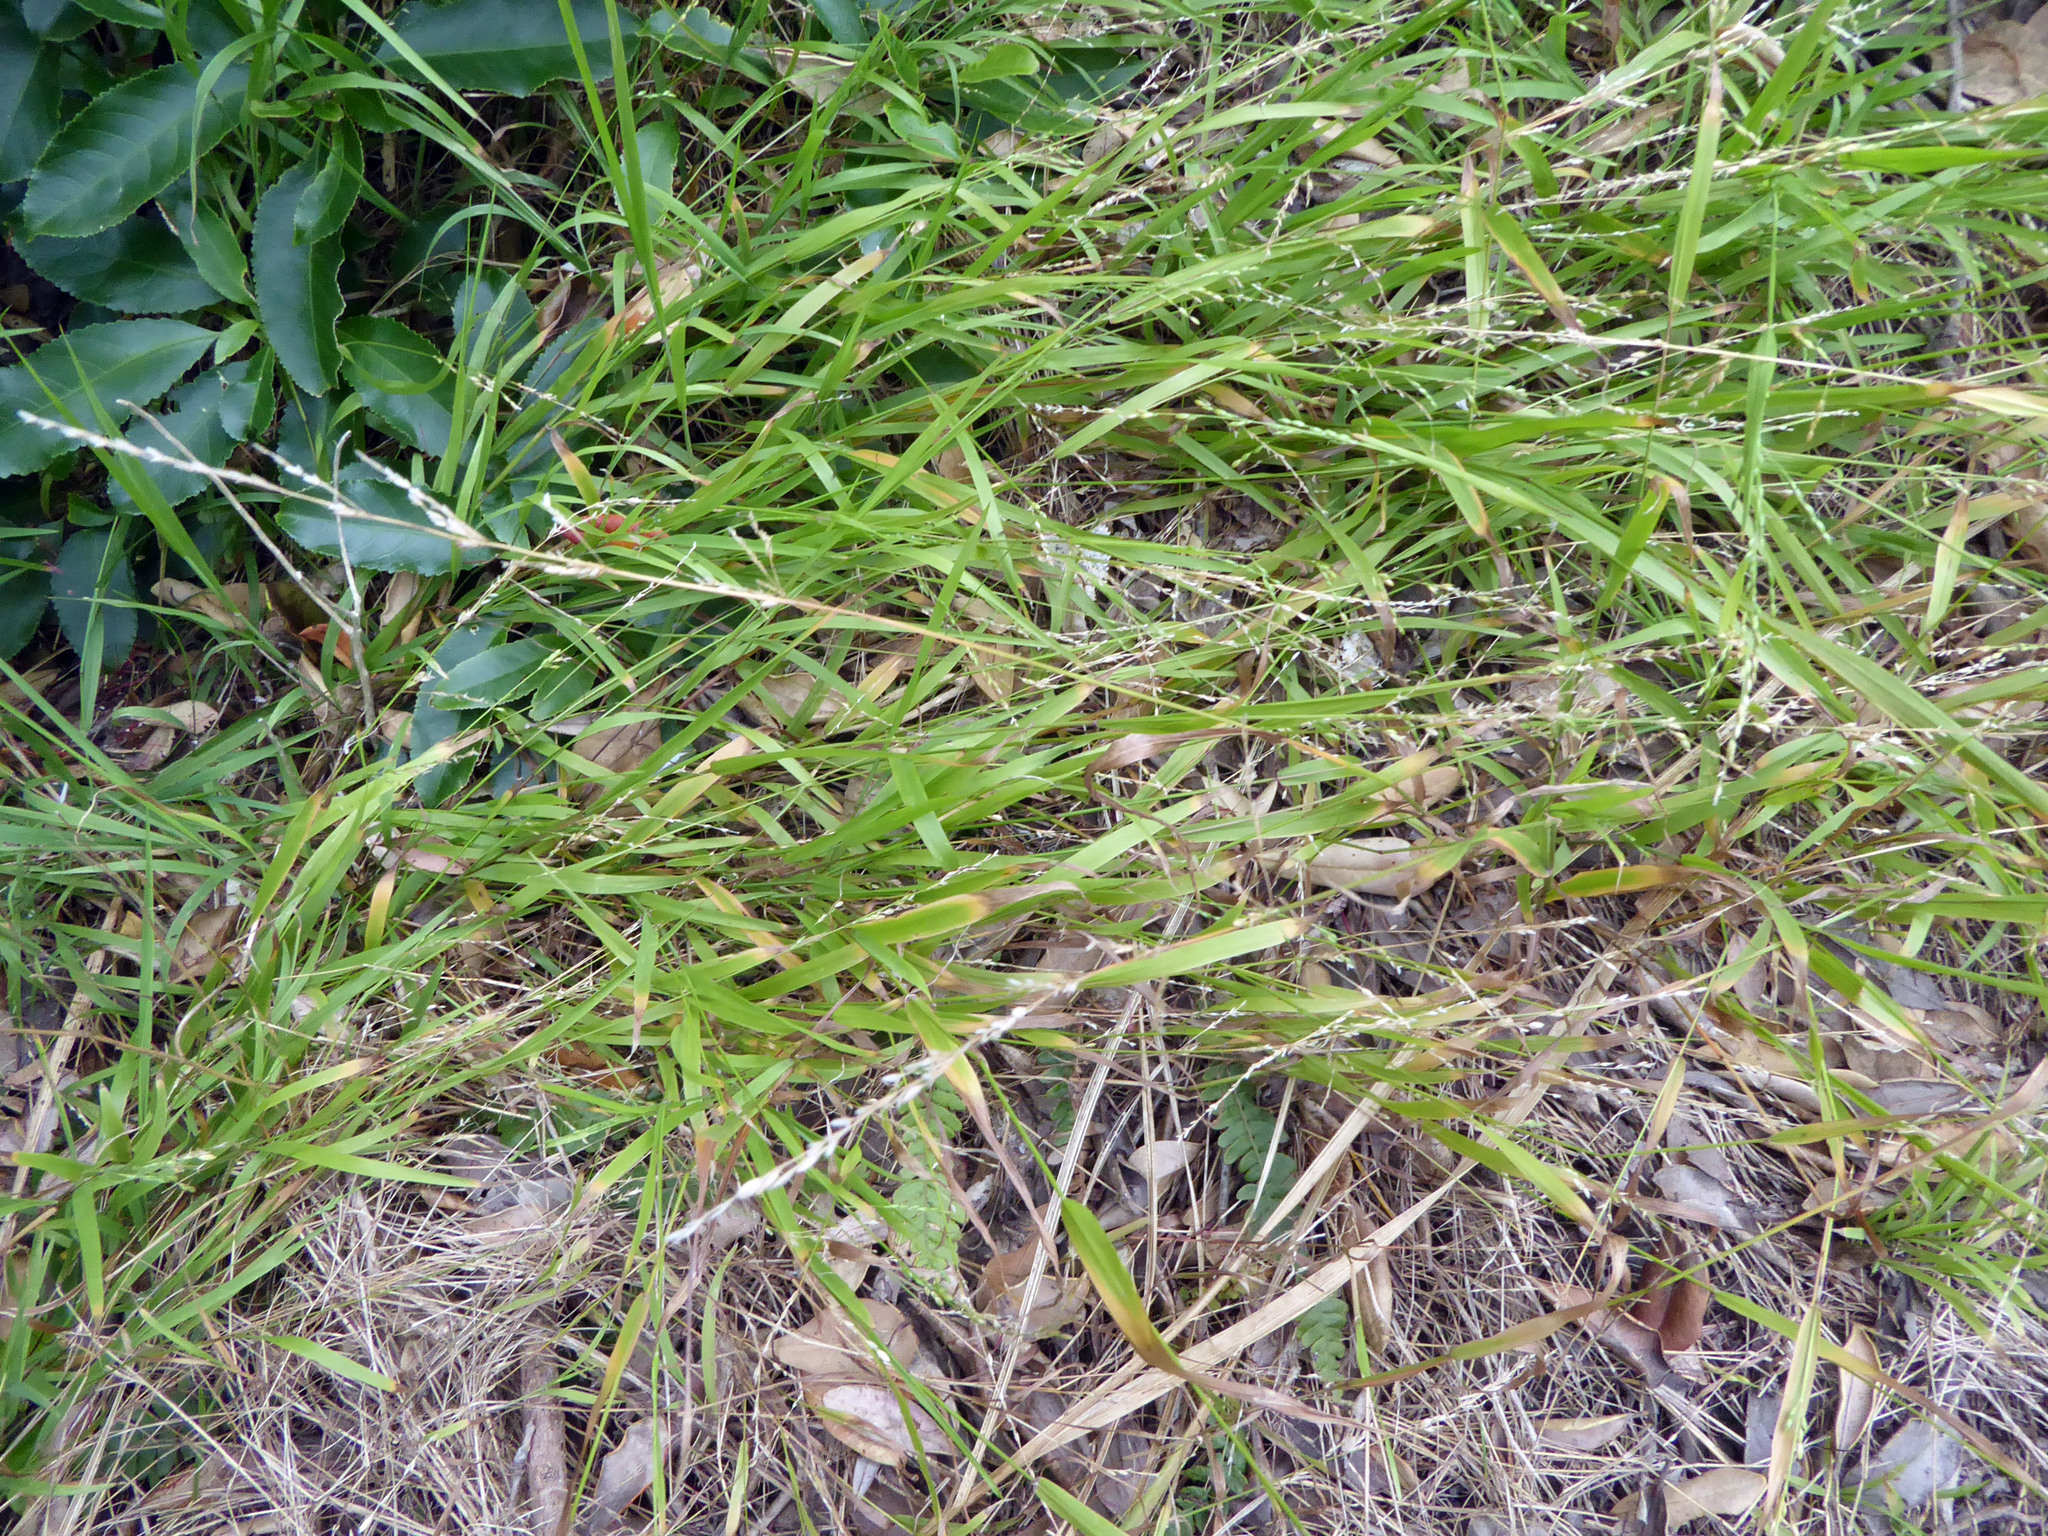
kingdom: Plantae
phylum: Tracheophyta
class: Liliopsida
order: Poales
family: Poaceae
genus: Ehrharta
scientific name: Ehrharta erecta
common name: Panic veldtgrass
